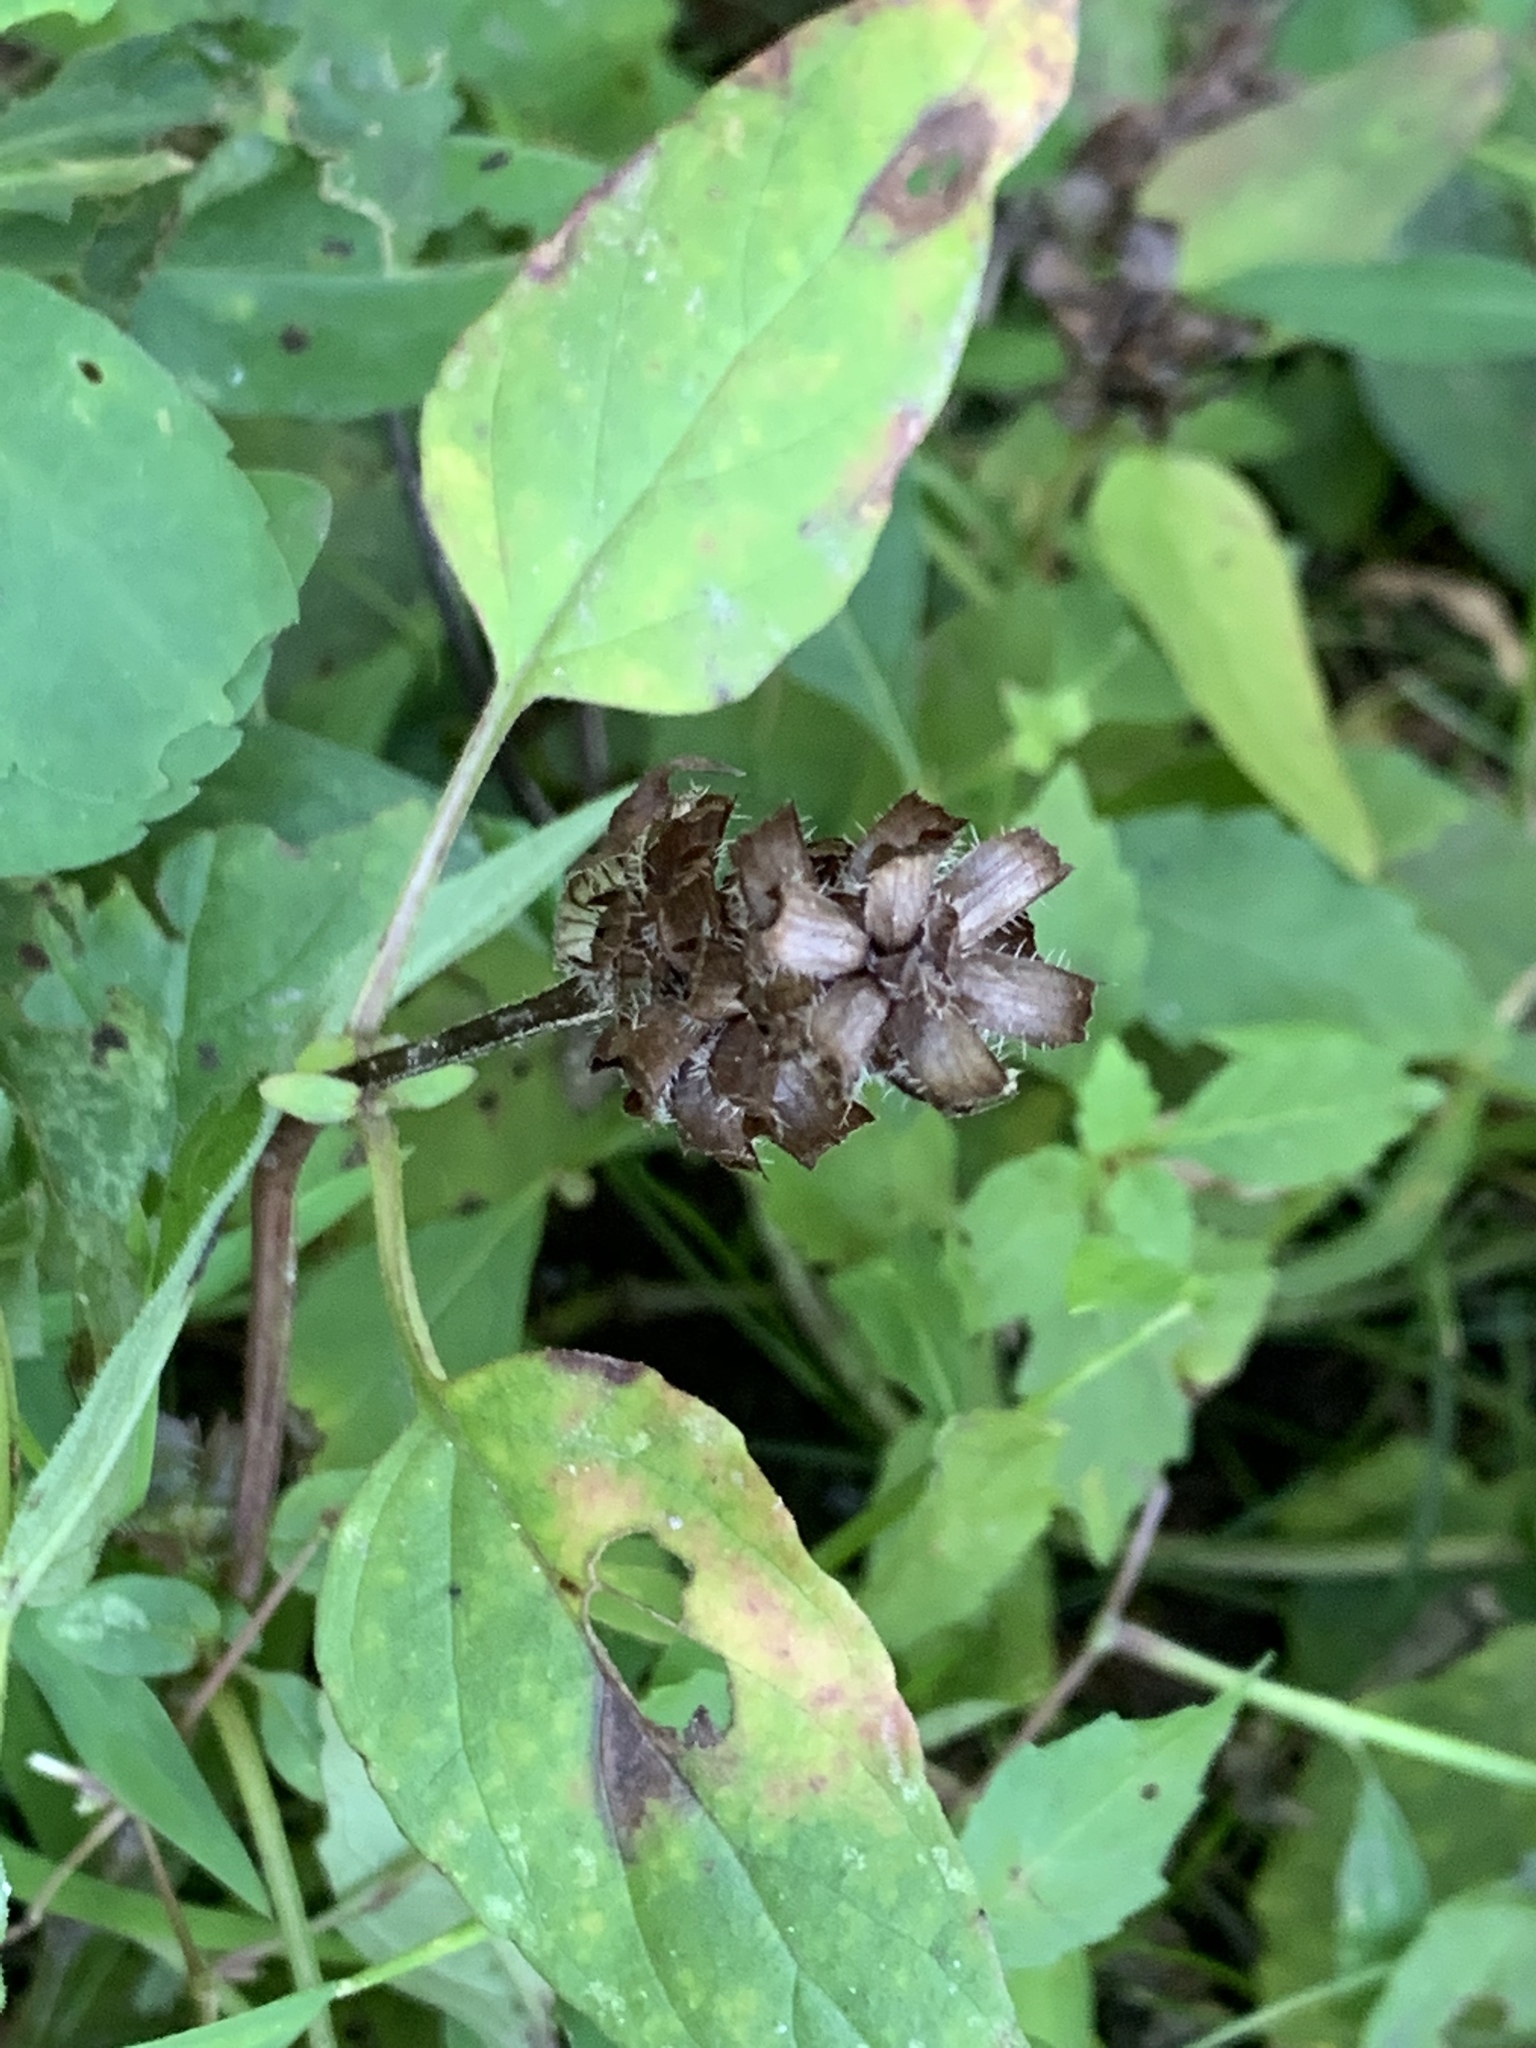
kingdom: Plantae
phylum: Tracheophyta
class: Magnoliopsida
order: Lamiales
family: Lamiaceae
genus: Prunella
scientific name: Prunella vulgaris
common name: Heal-all
